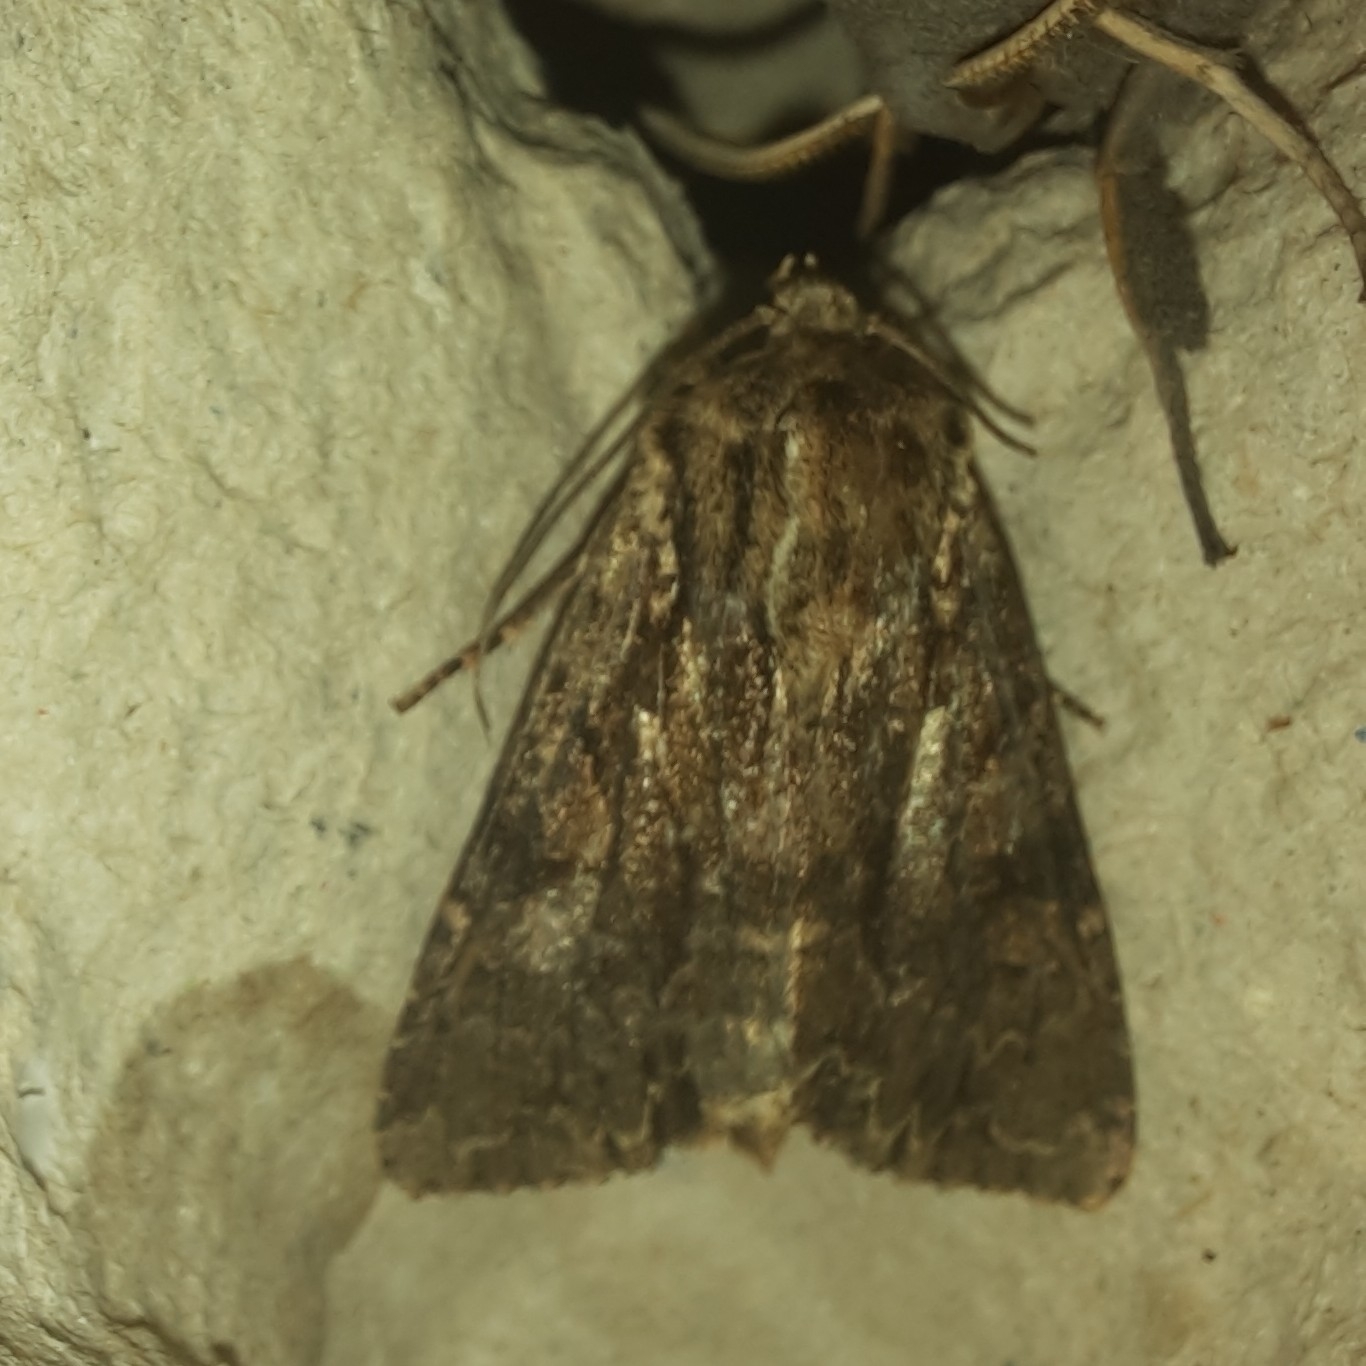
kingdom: Animalia
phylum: Arthropoda
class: Insecta
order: Lepidoptera
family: Noctuidae
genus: Apamea
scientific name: Apamea monoglypha
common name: Dark arches
